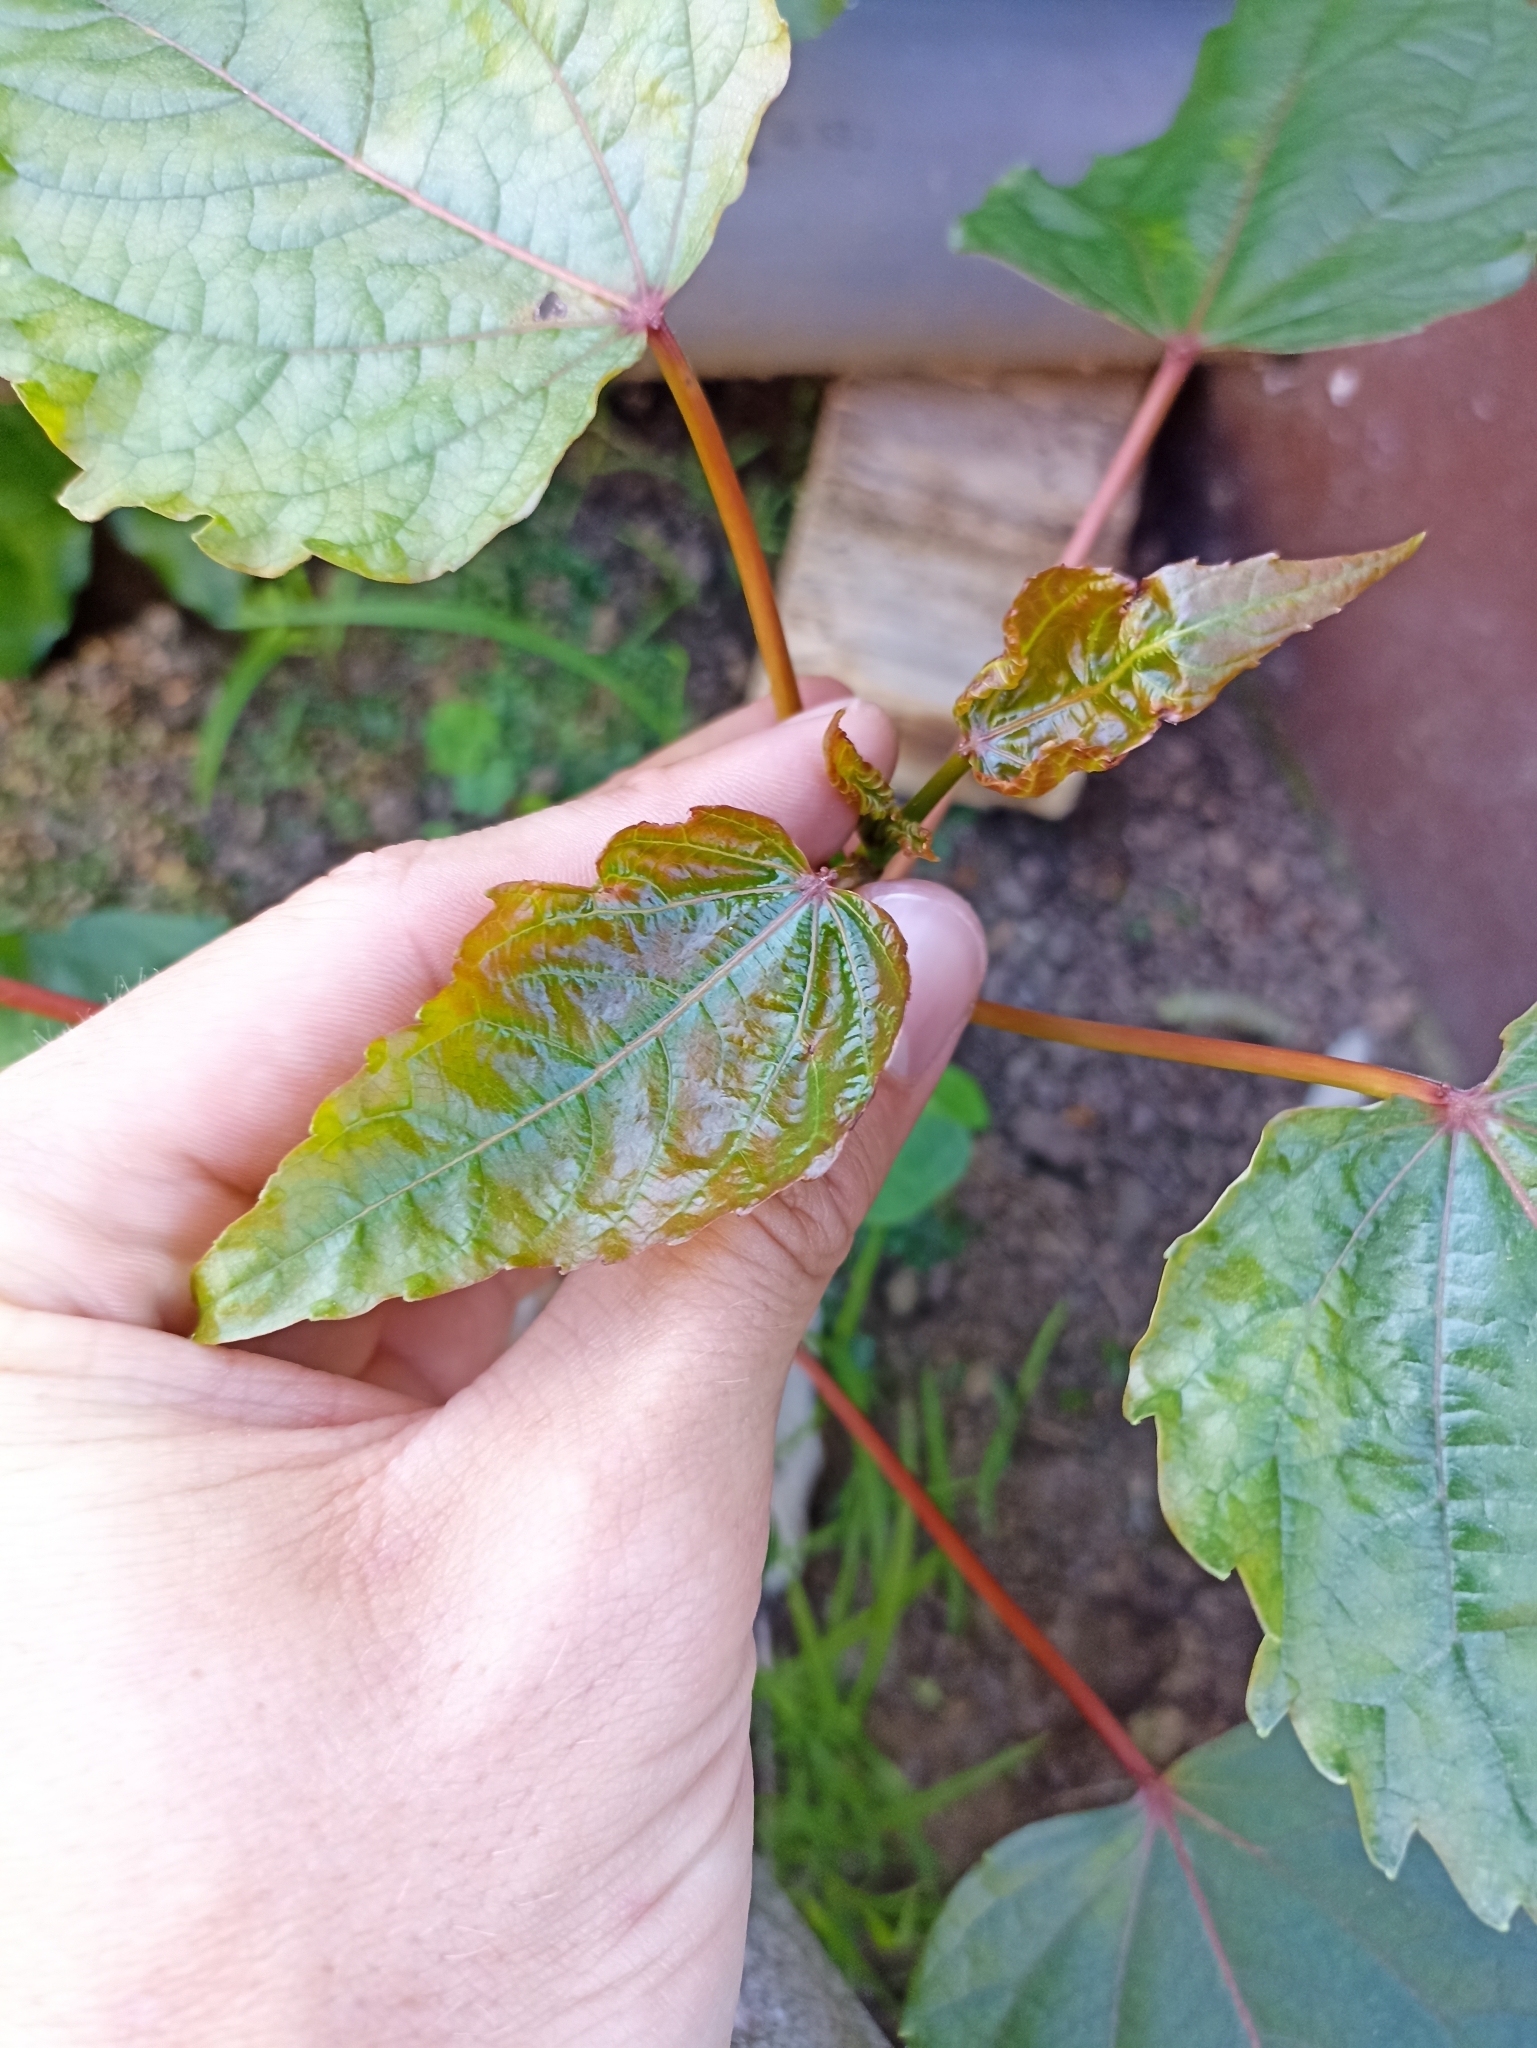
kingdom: Plantae
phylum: Tracheophyta
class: Magnoliopsida
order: Malpighiales
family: Salicaceae
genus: Idesia
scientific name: Idesia polycarpa
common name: Idesia tree
